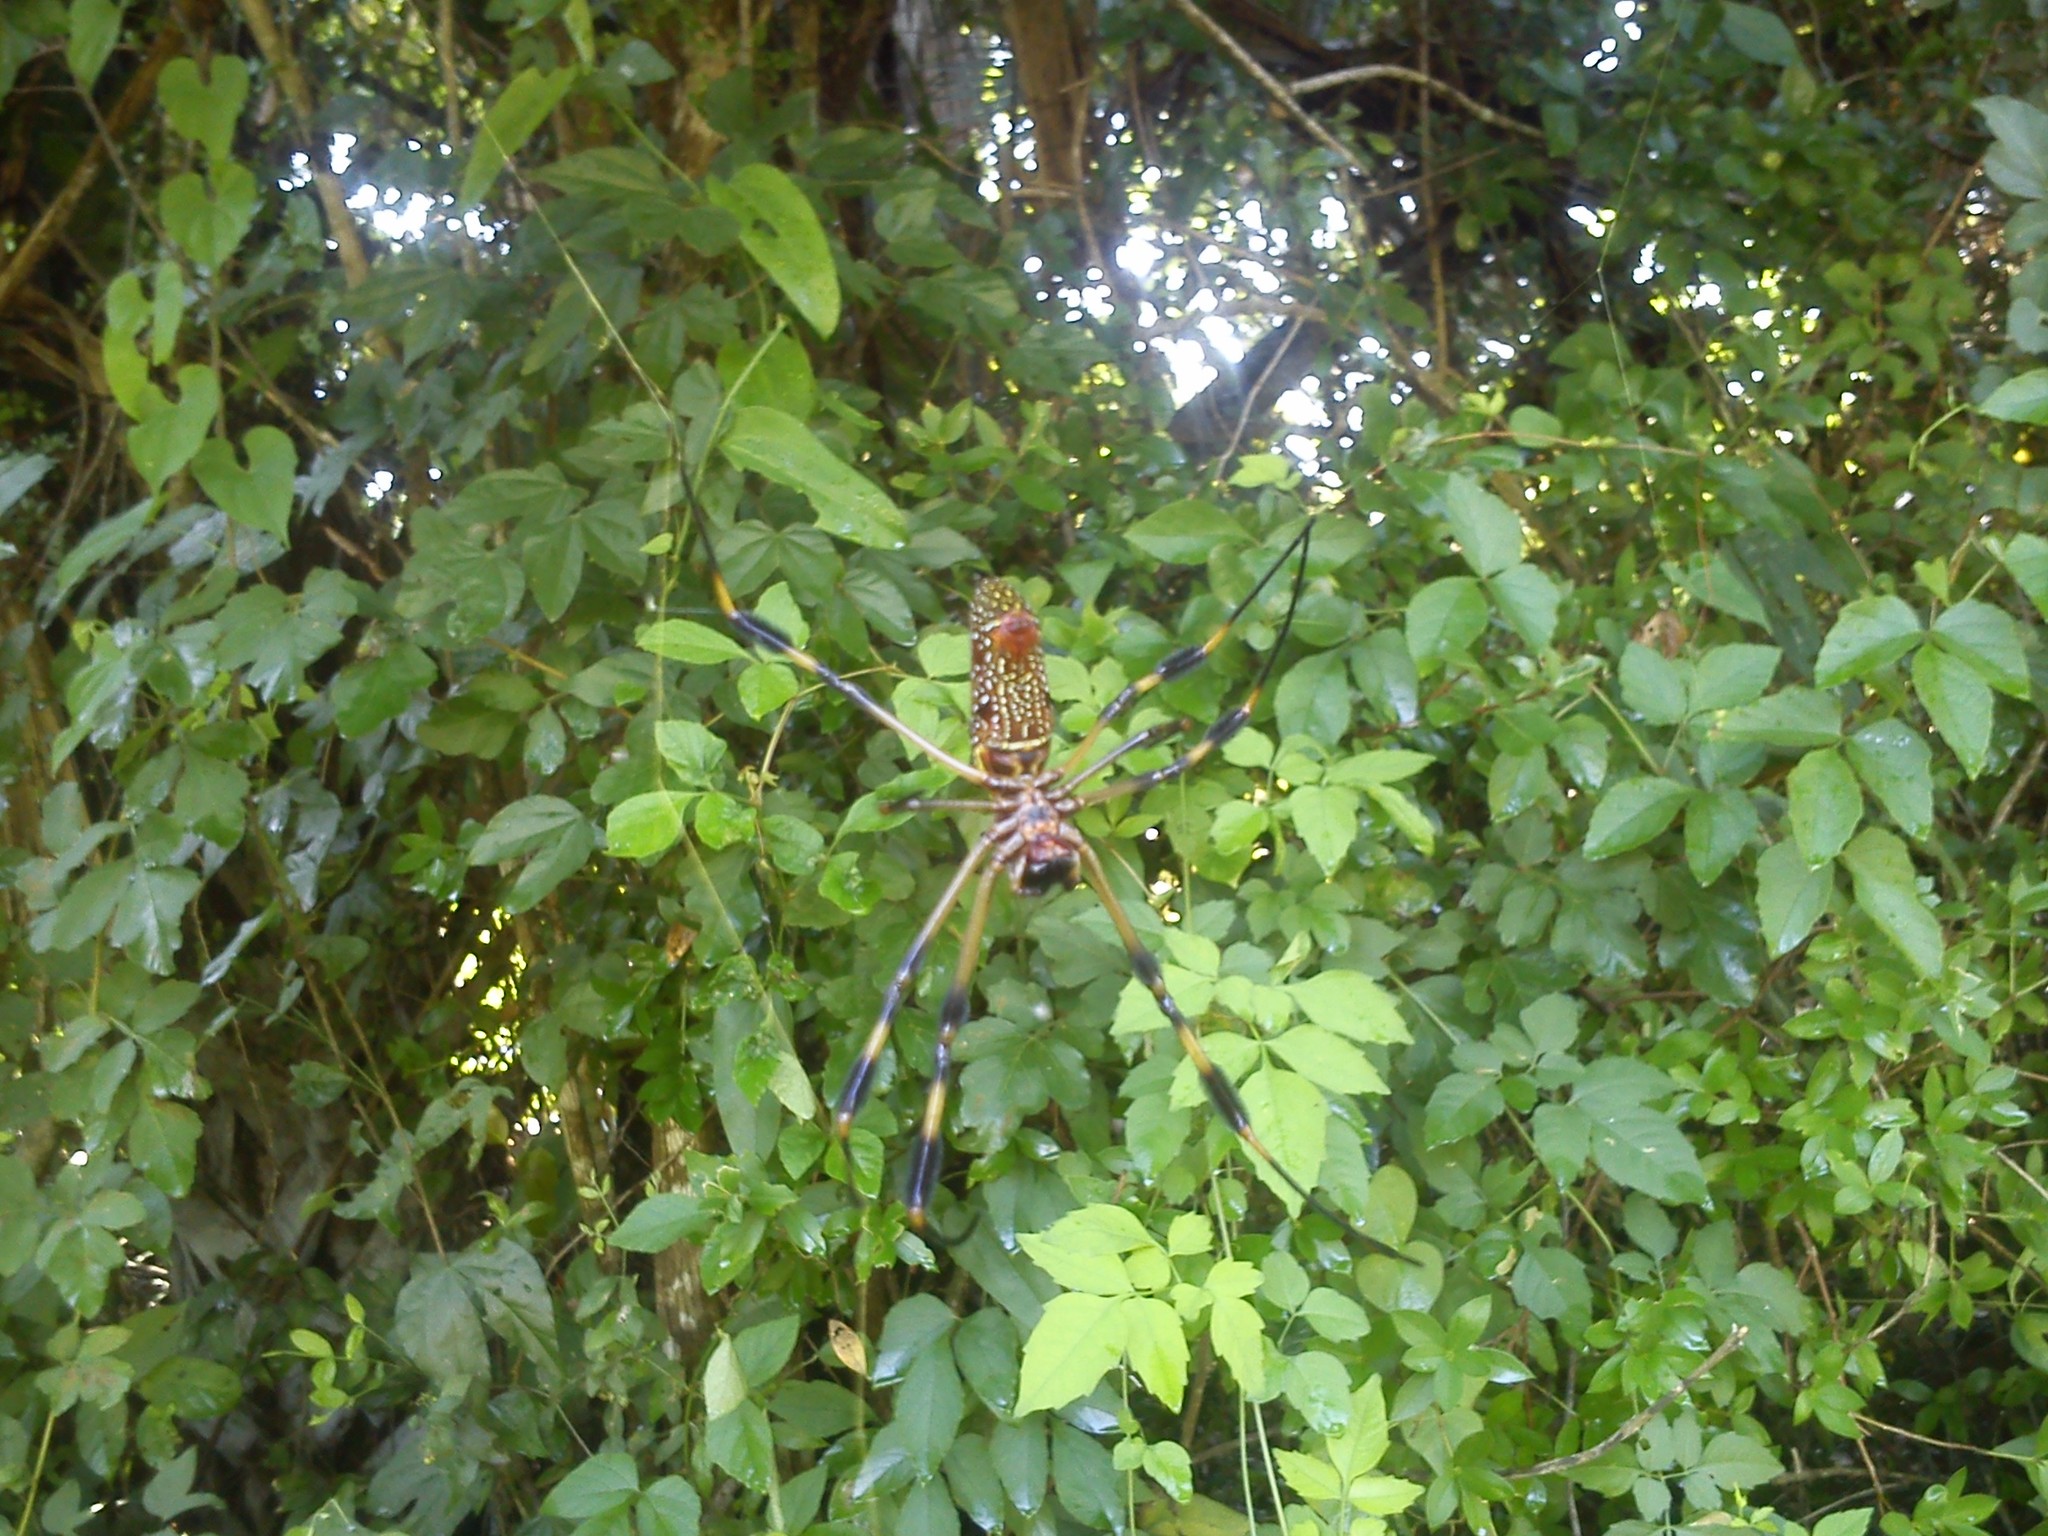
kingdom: Animalia
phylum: Arthropoda
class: Arachnida
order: Araneae
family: Araneidae
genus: Trichonephila
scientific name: Trichonephila clavipes
